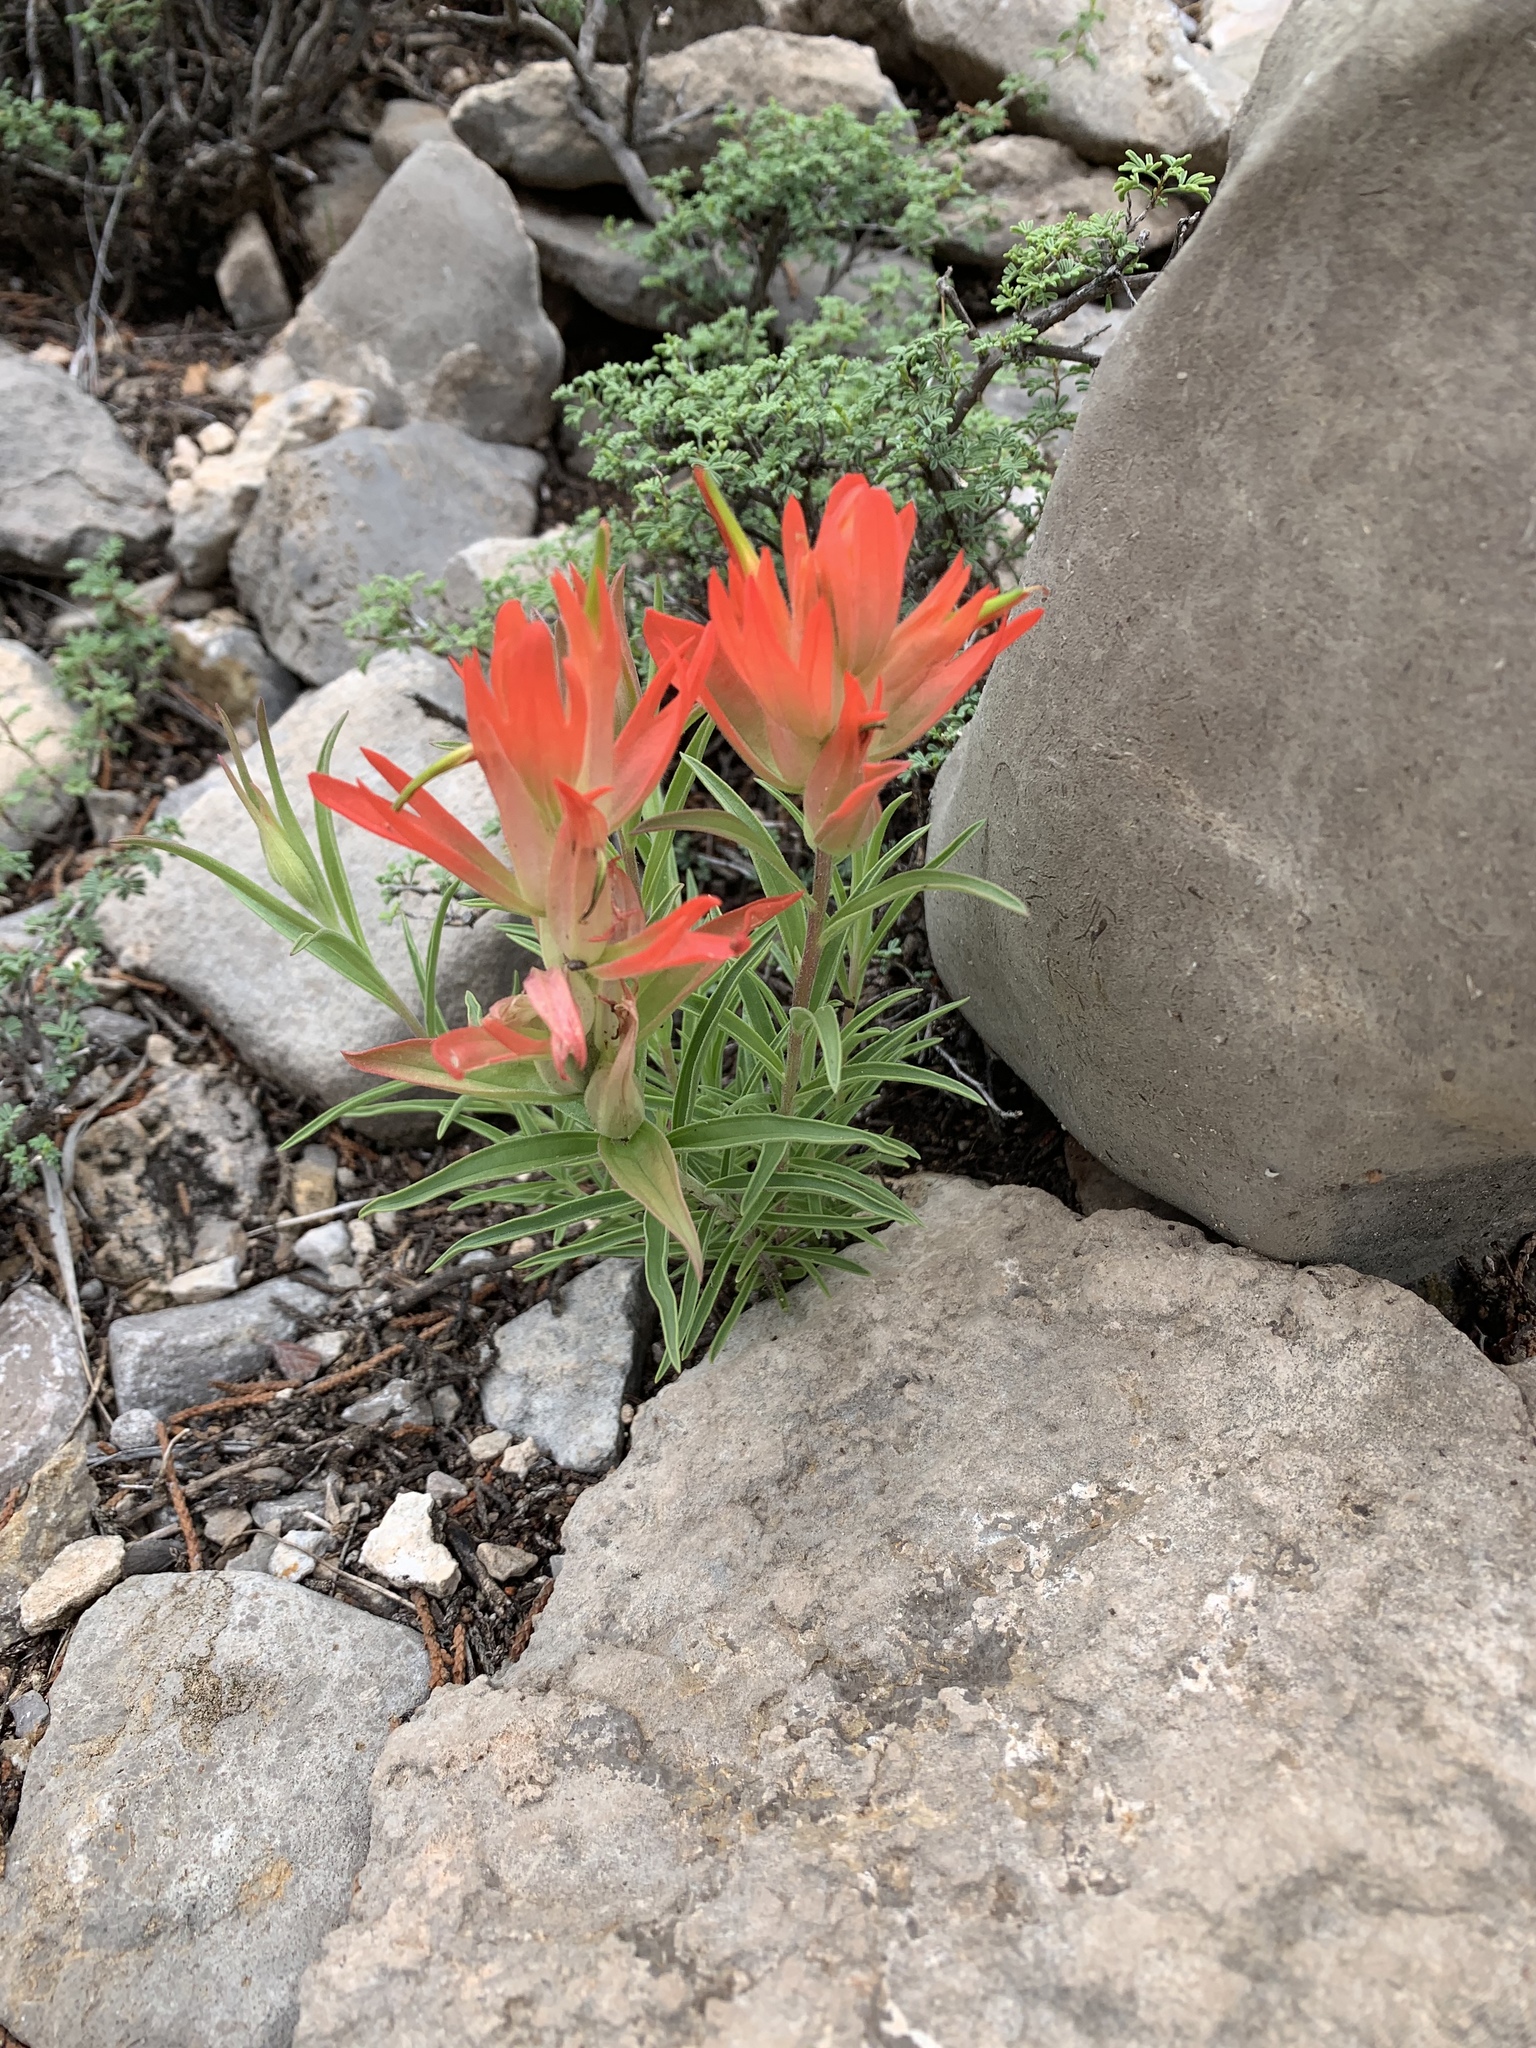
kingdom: Plantae
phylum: Tracheophyta
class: Magnoliopsida
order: Lamiales
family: Orobanchaceae
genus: Castilleja
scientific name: Castilleja integra
